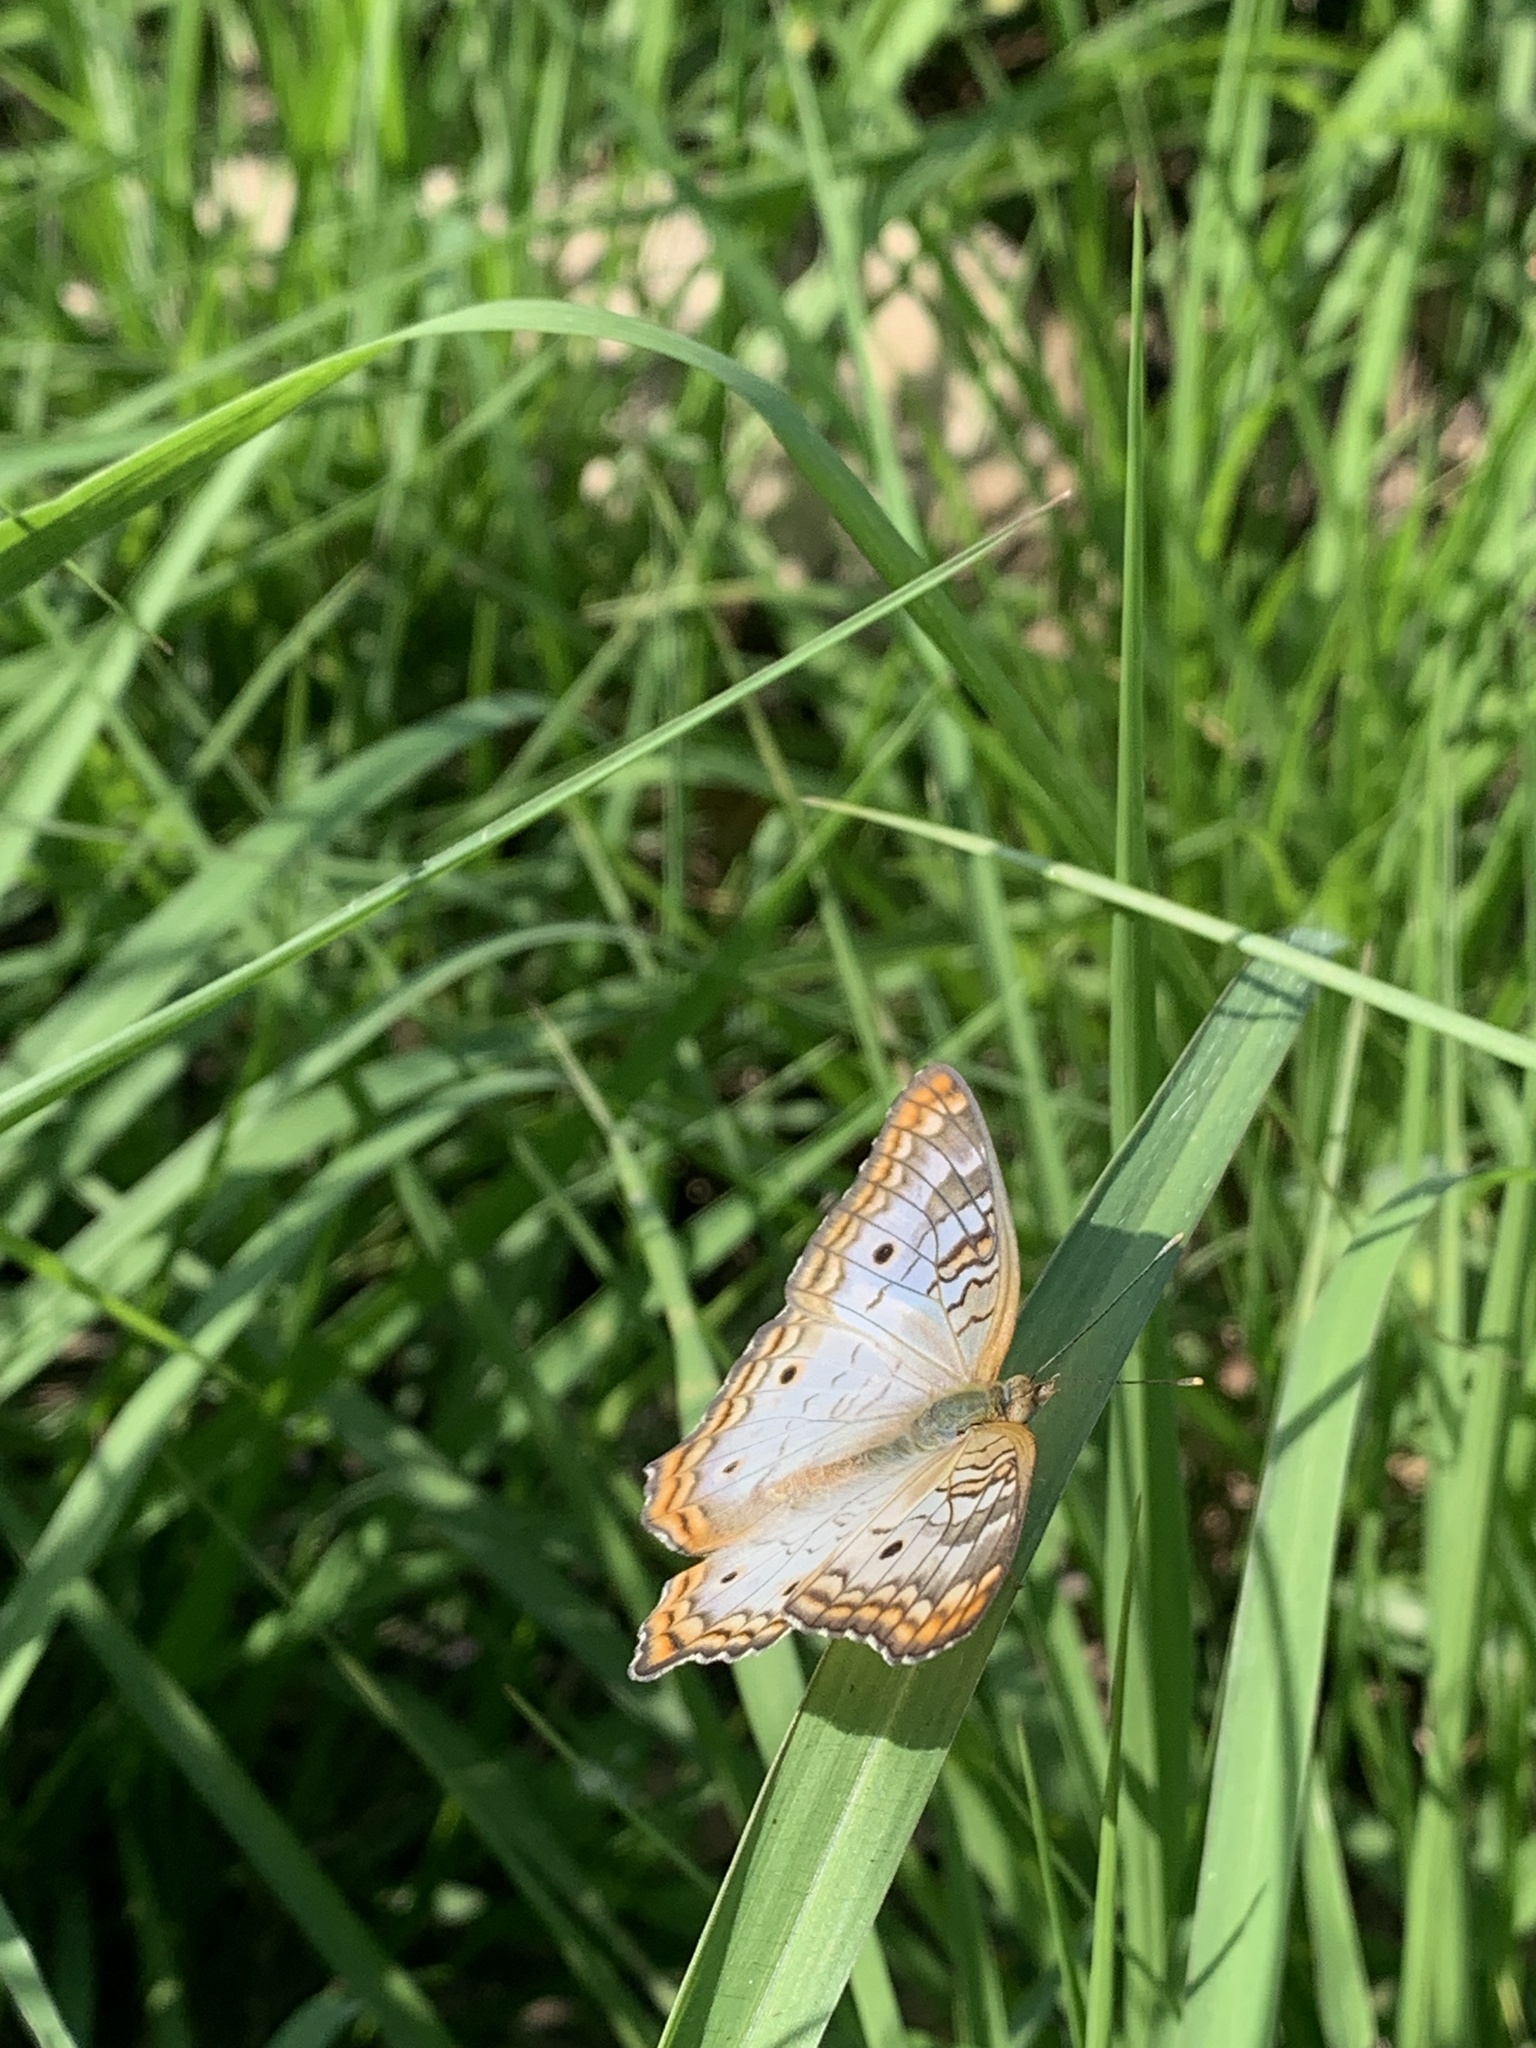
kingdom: Animalia
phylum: Arthropoda
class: Insecta
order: Lepidoptera
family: Nymphalidae
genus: Anartia
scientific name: Anartia jatrophae
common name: White peacock
